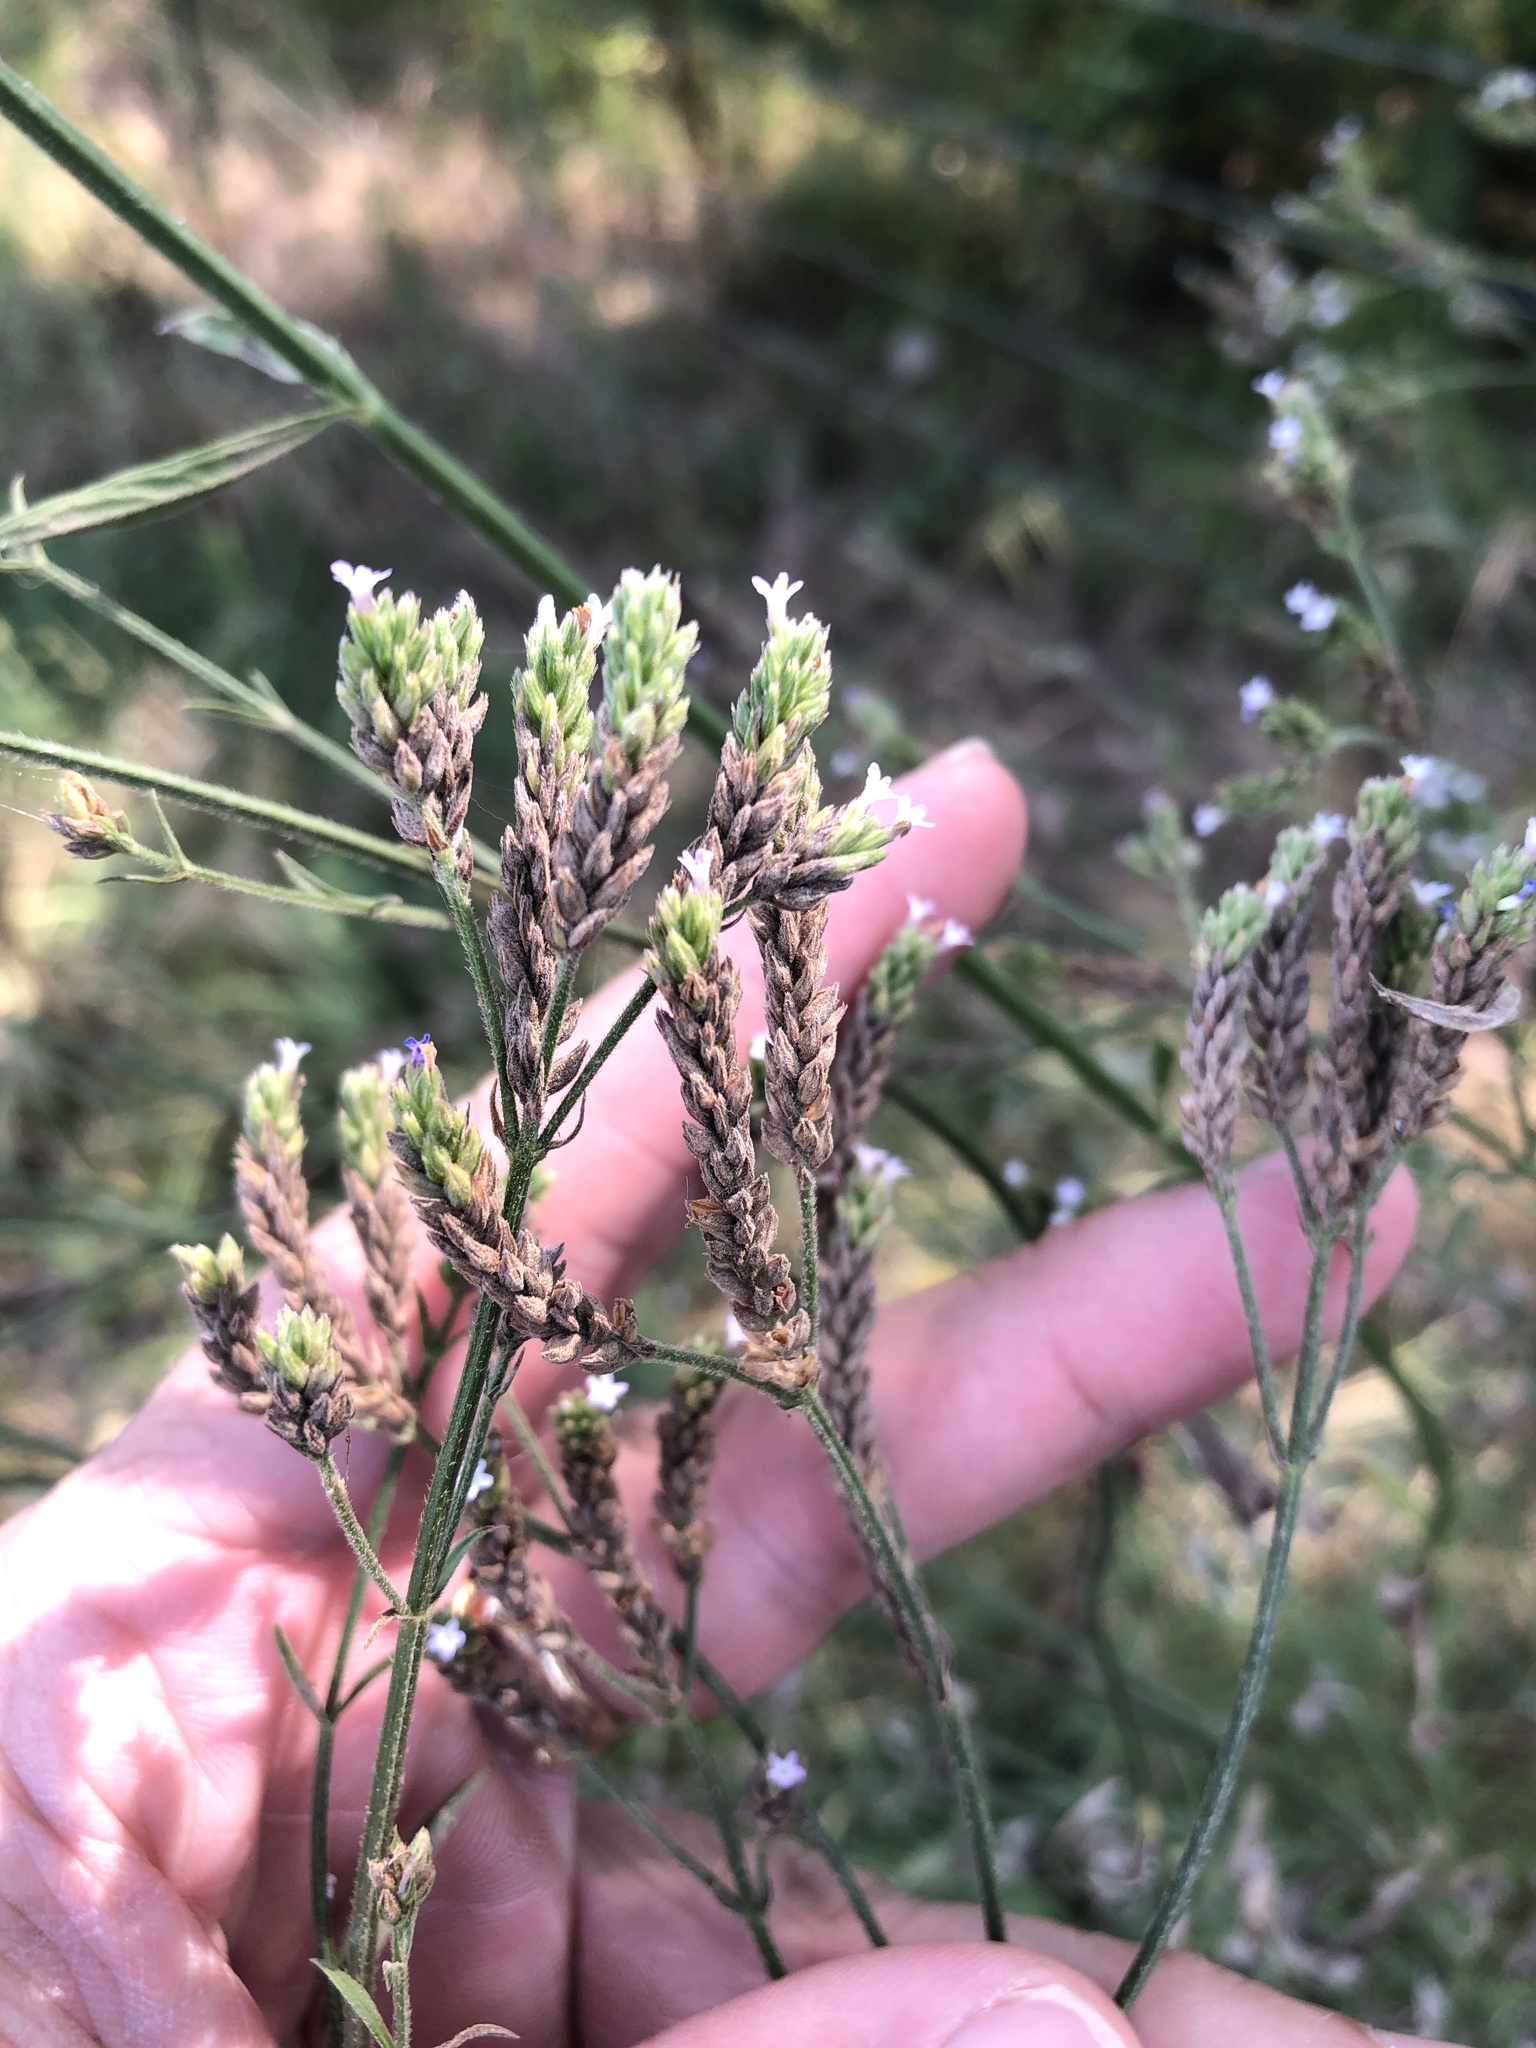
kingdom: Plantae
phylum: Tracheophyta
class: Magnoliopsida
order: Lamiales
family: Verbenaceae
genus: Verbena
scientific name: Verbena brasiliensis
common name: Brazilian vervain
